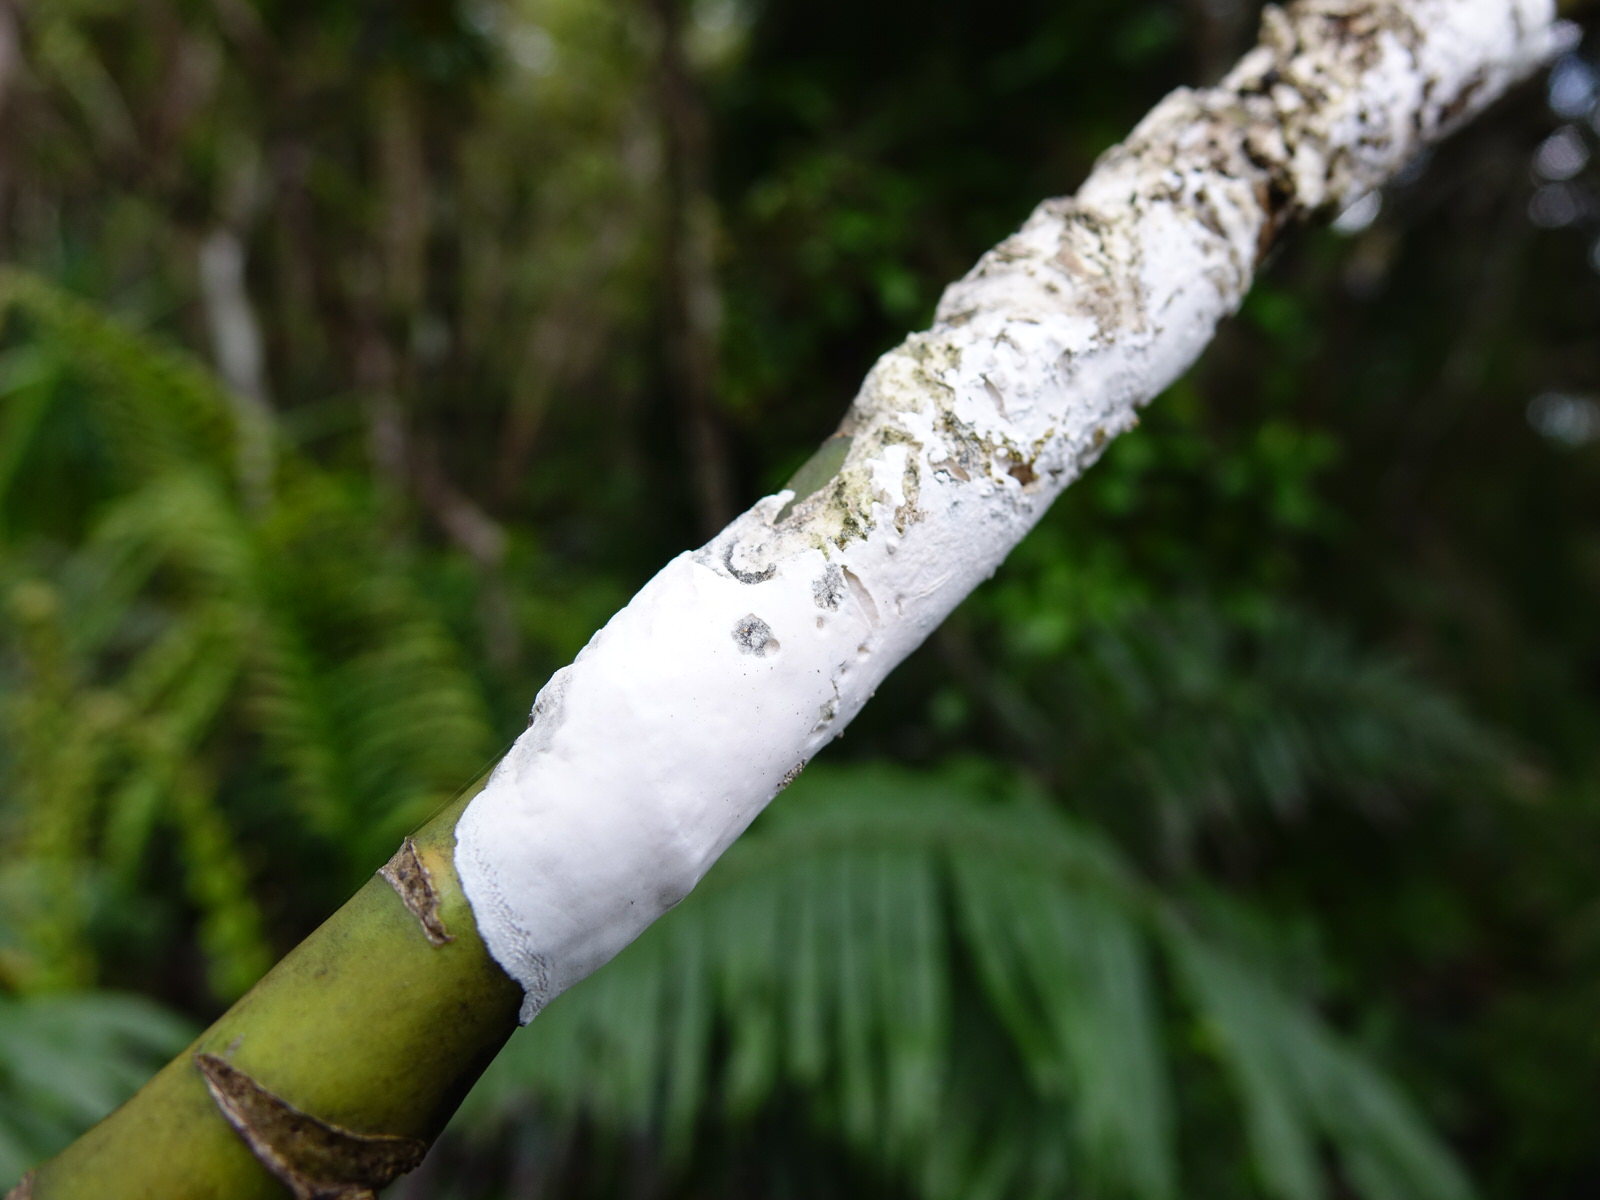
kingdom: Fungi
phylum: Basidiomycota
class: Pucciniomycetes
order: Septobasidiales
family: Septobasidiaceae
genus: Septobasidium
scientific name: Septobasidium simmondsii
